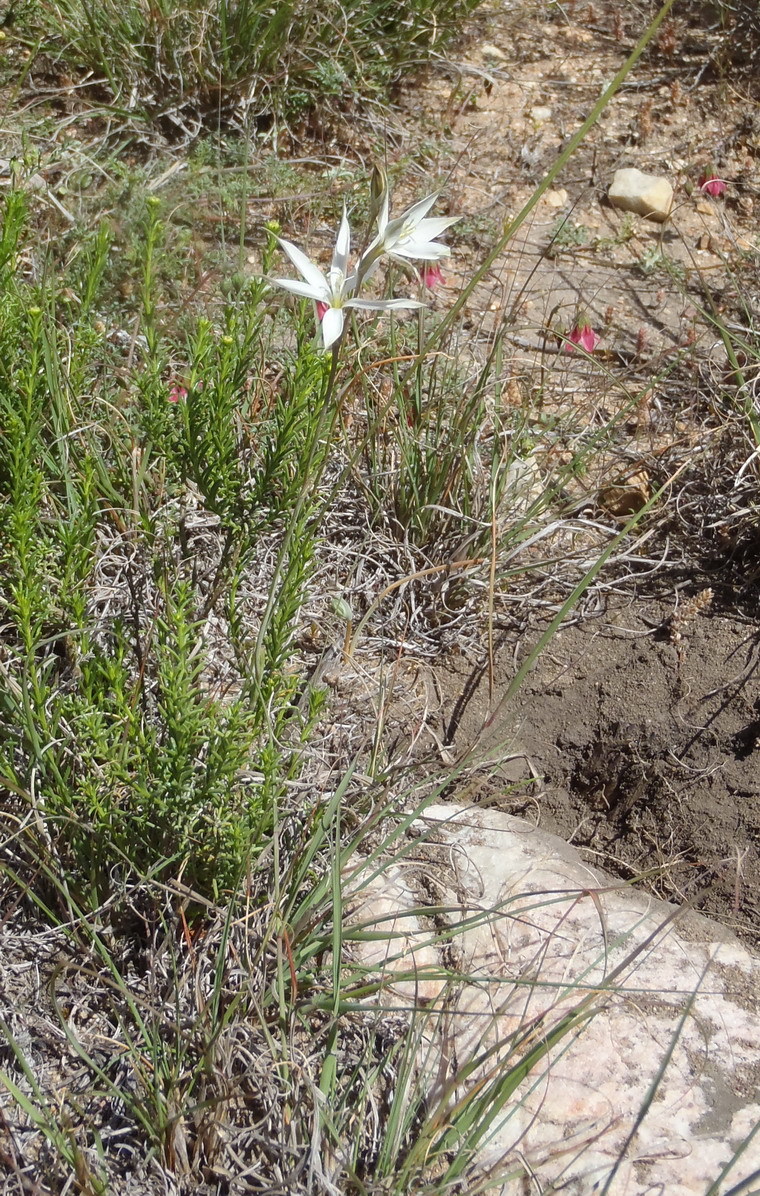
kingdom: Plantae
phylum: Tracheophyta
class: Liliopsida
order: Asparagales
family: Iridaceae
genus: Gladiolus
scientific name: Gladiolus stellatus
